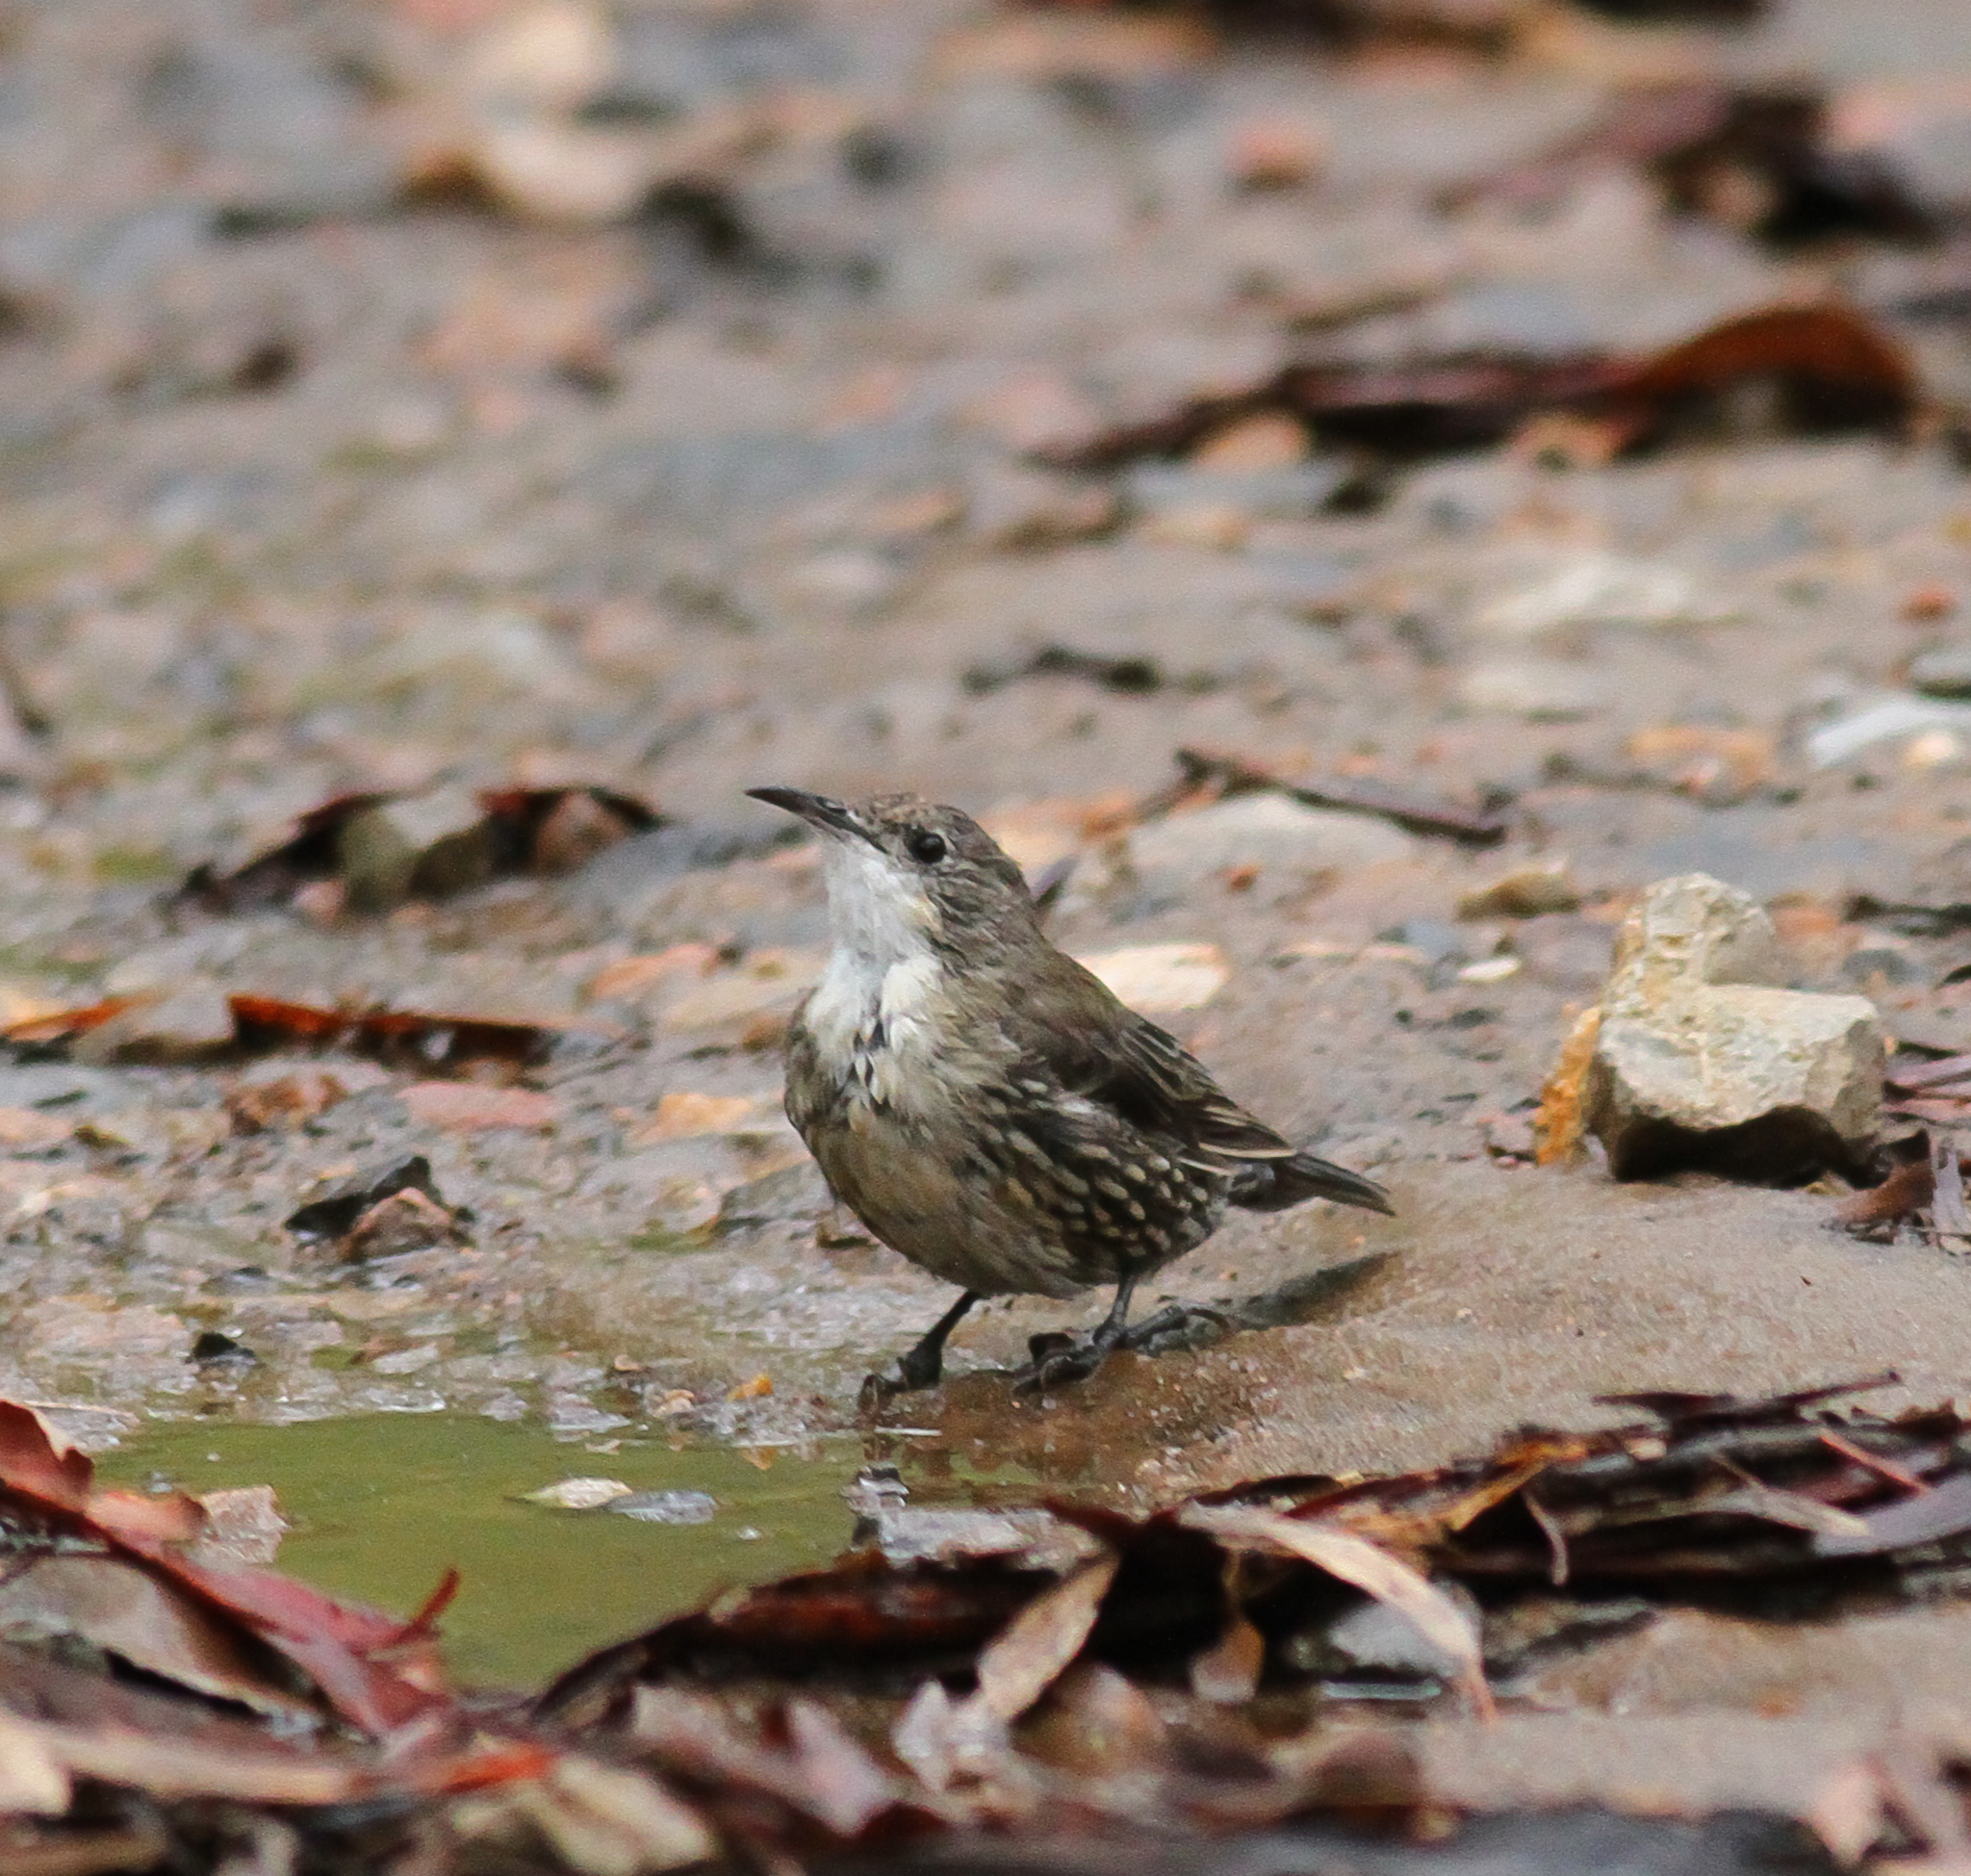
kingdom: Animalia
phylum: Chordata
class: Aves
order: Passeriformes
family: Climacteridae
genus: Cormobates
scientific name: Cormobates leucophaea
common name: White-throated treecreeper
